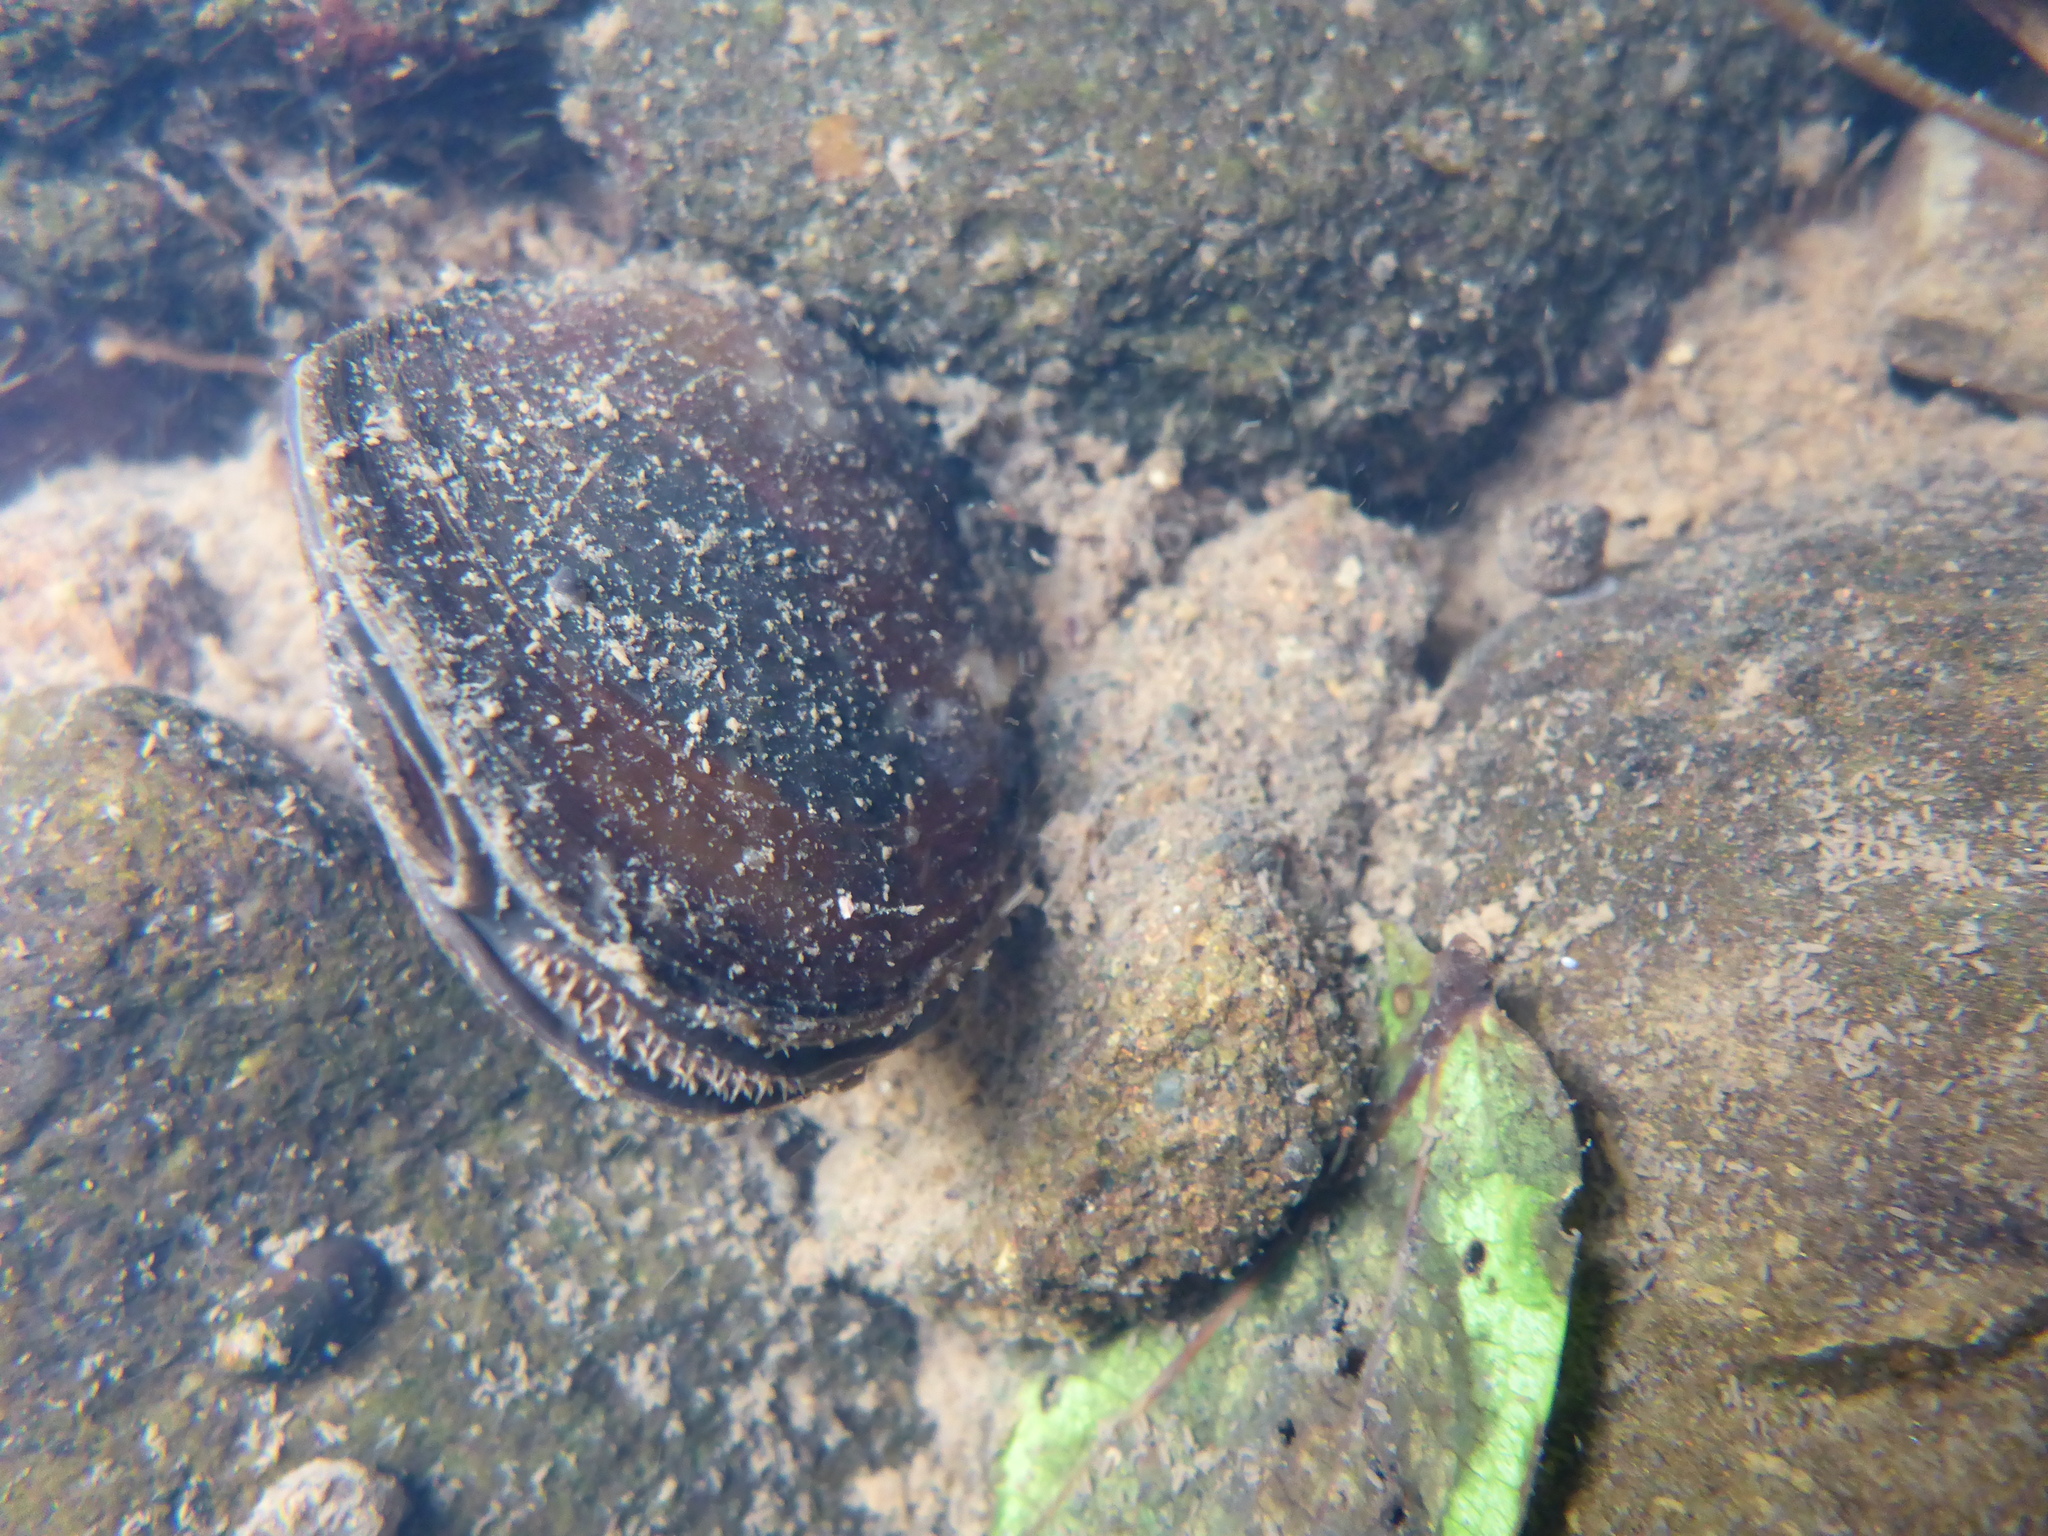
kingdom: Animalia
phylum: Mollusca
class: Bivalvia
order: Unionida
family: Hyriidae
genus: Echyridella
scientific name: Echyridella menziesii
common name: New zealand freshwater mussel
